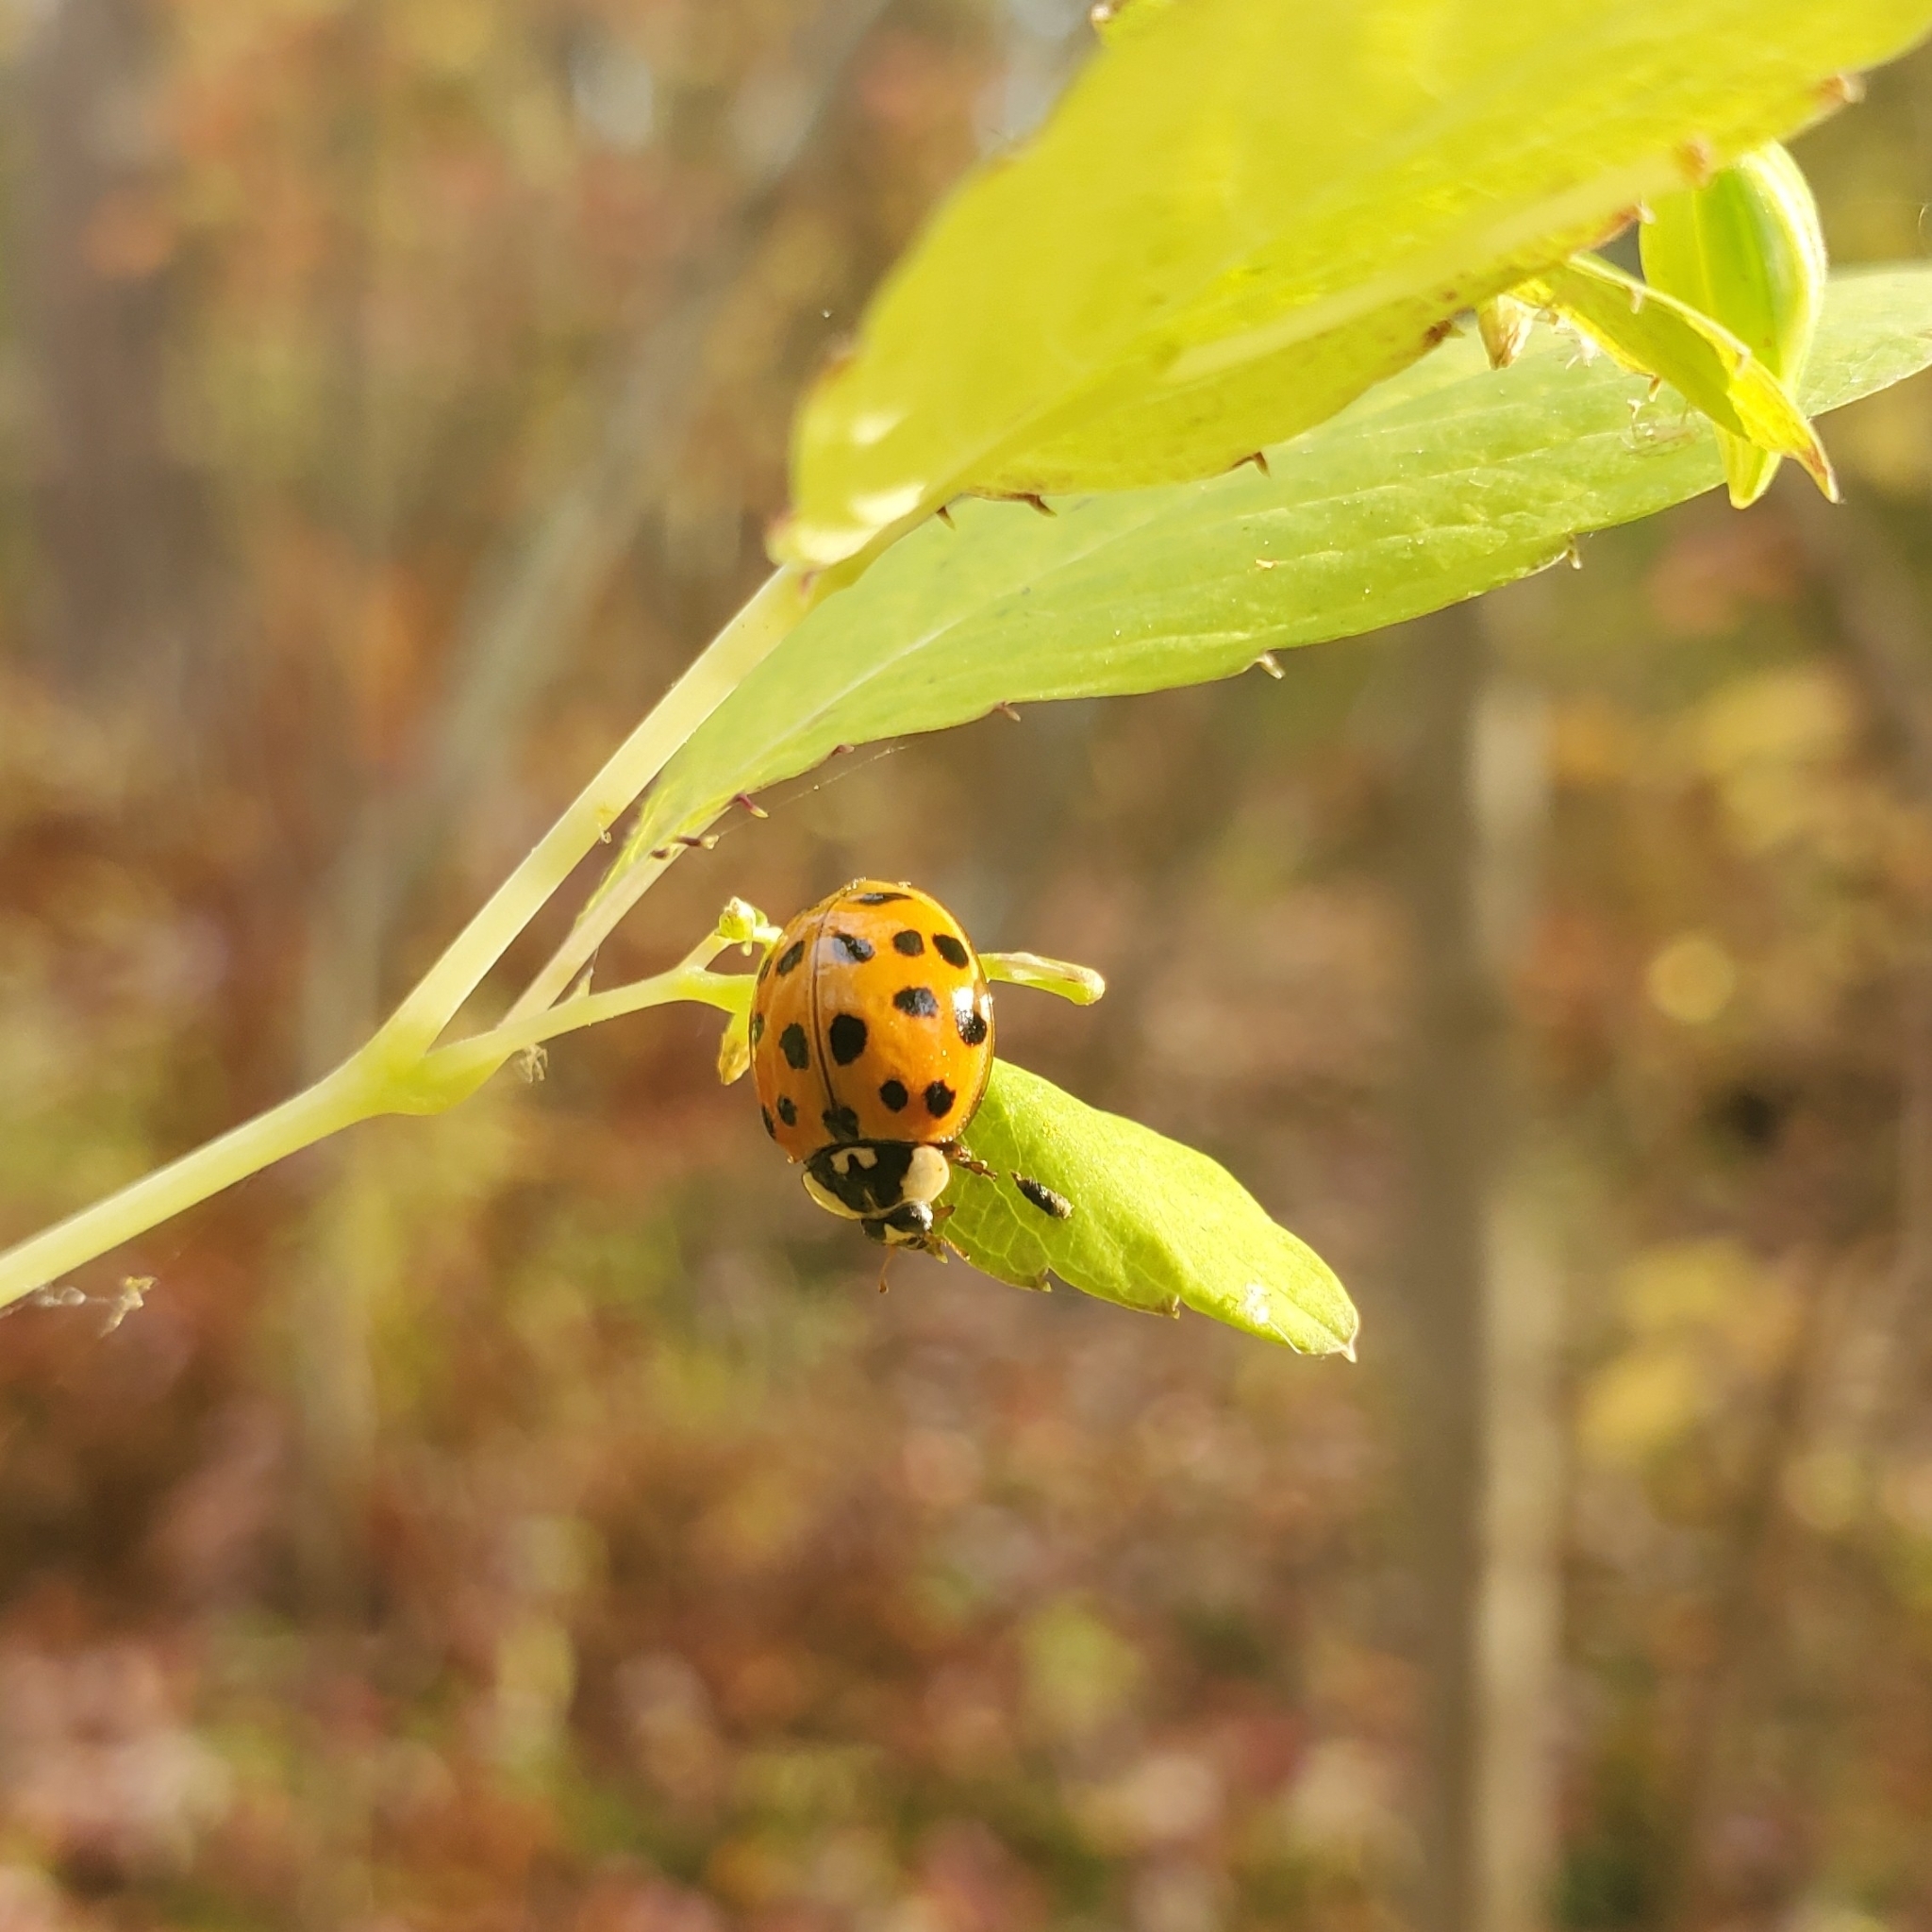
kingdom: Animalia
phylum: Arthropoda
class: Insecta
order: Coleoptera
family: Coccinellidae
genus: Harmonia
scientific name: Harmonia axyridis
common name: Harlequin ladybird
